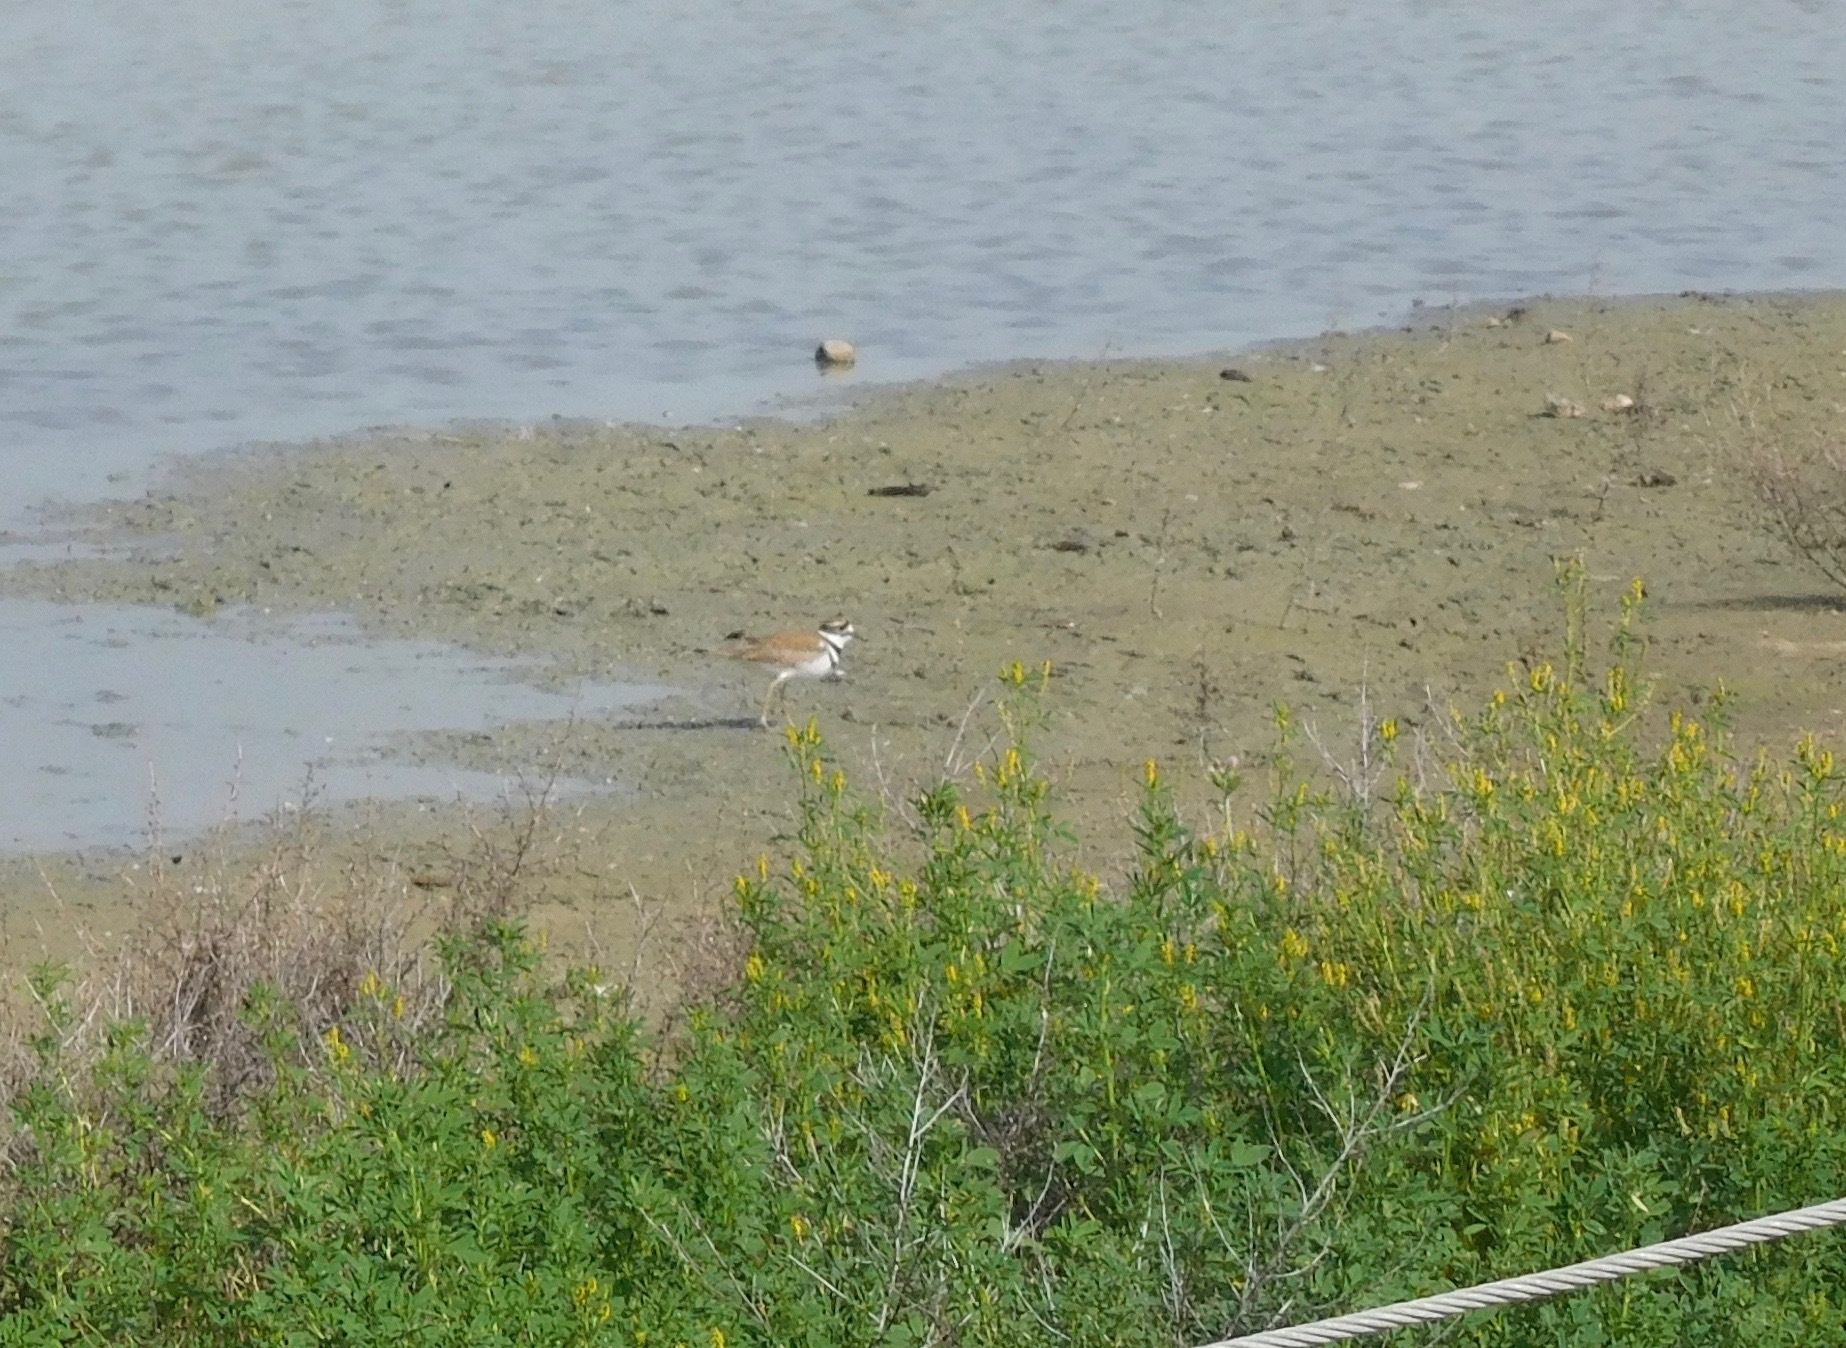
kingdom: Animalia
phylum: Chordata
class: Aves
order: Charadriiformes
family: Charadriidae
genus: Charadrius
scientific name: Charadrius vociferus
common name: Killdeer
